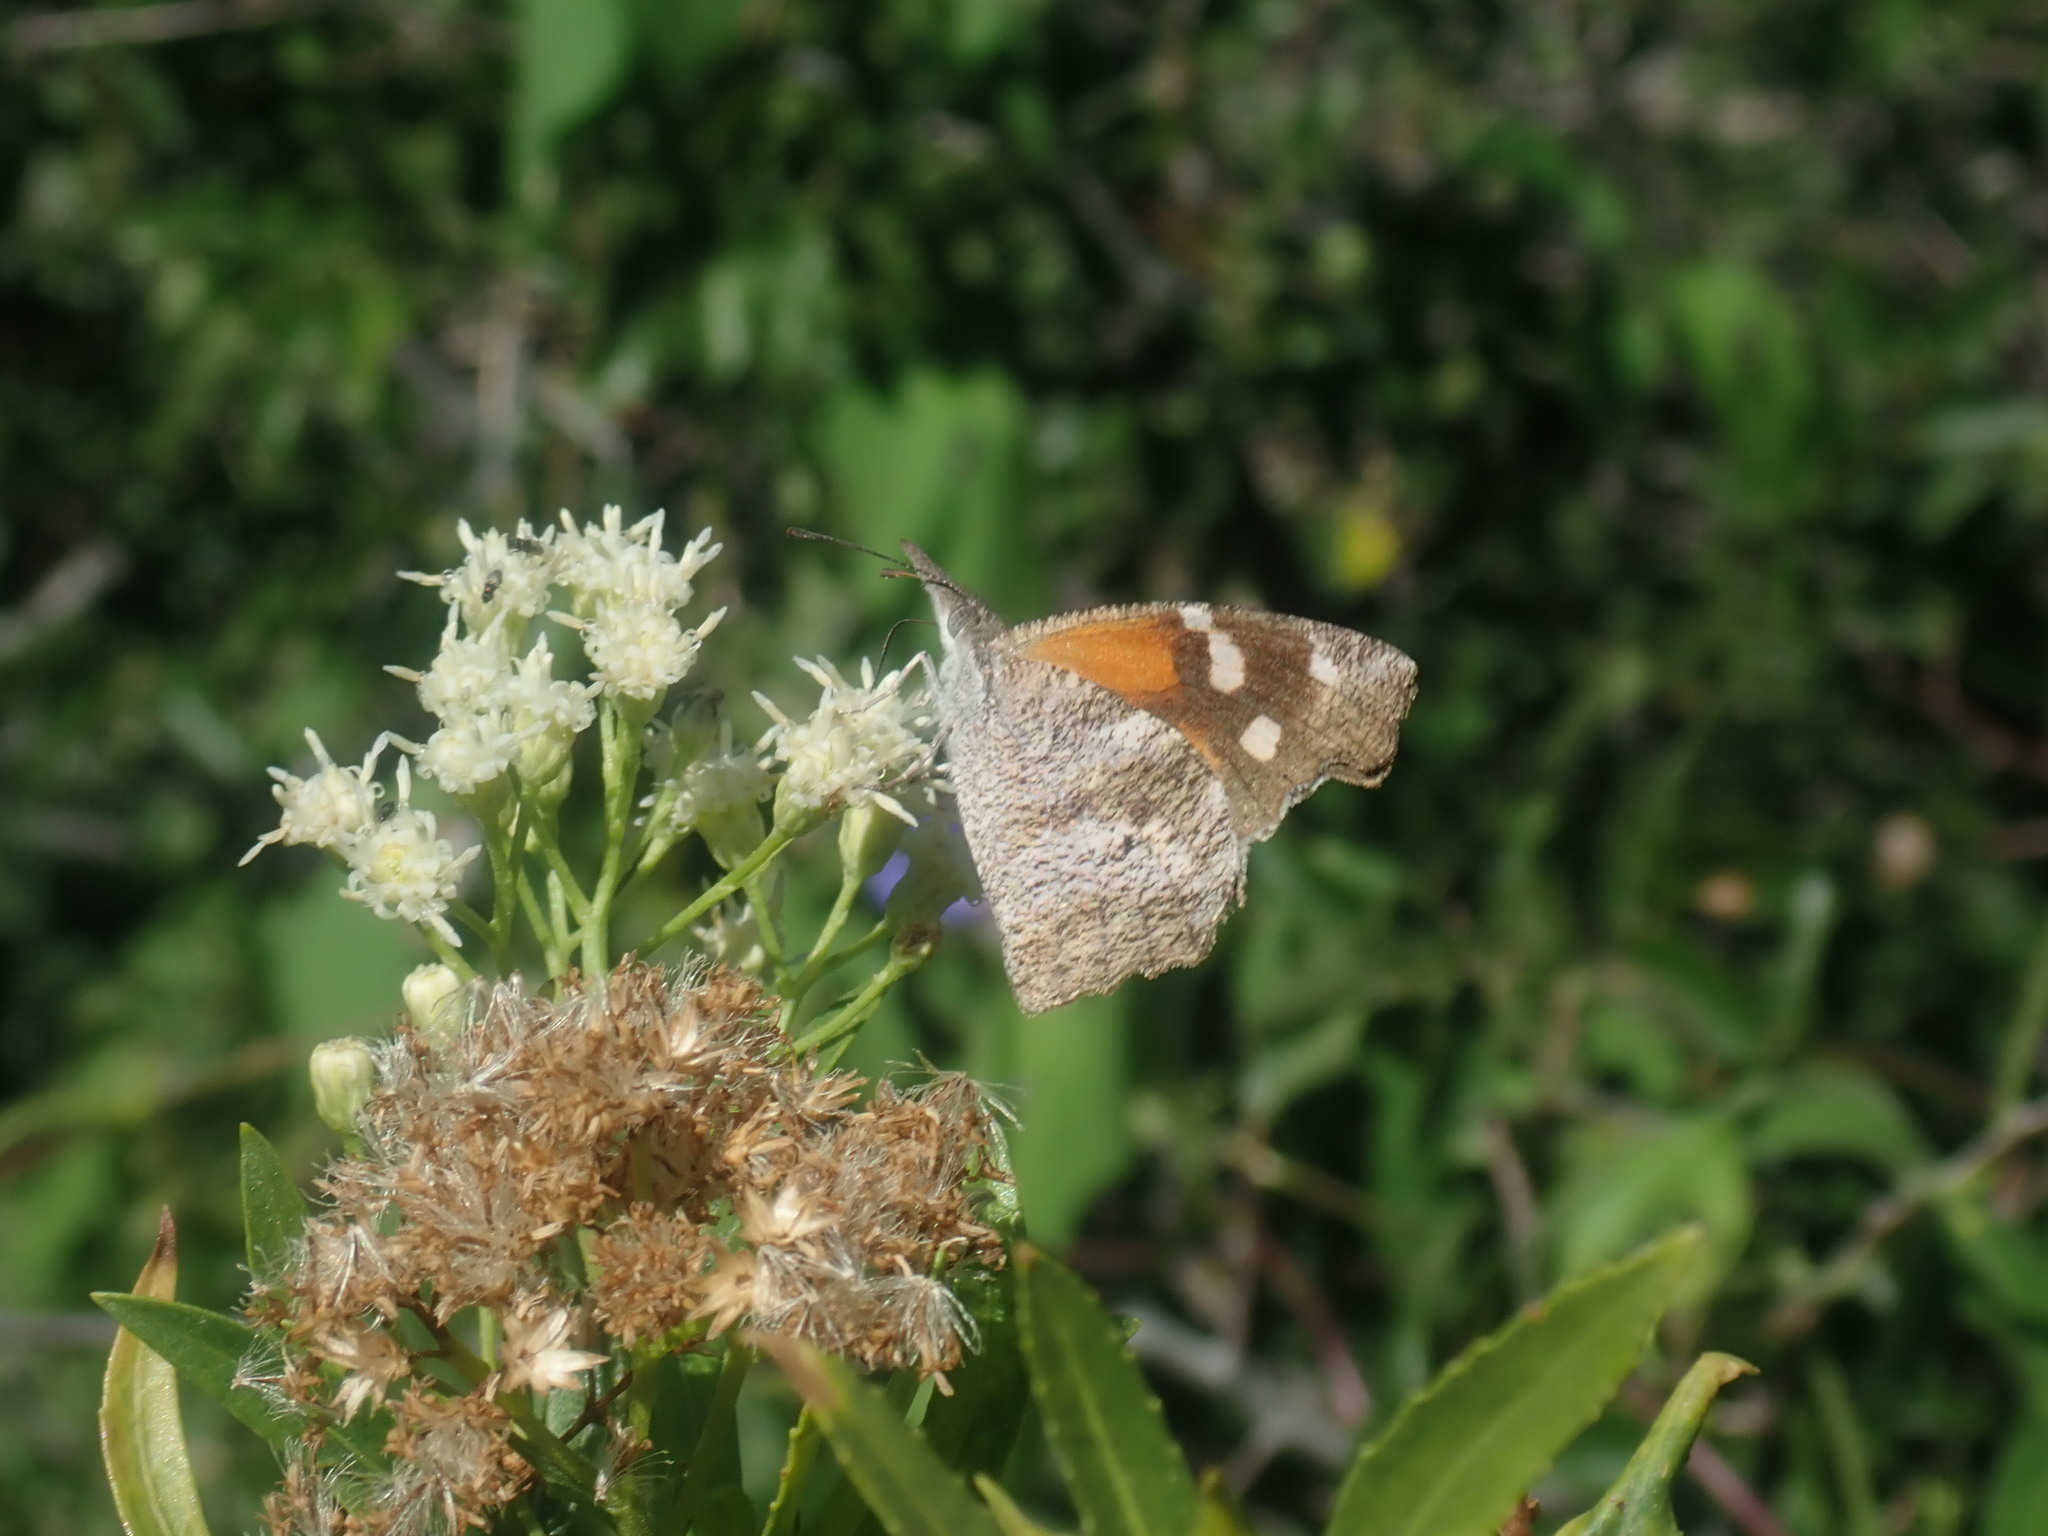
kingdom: Animalia
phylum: Arthropoda
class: Insecta
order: Lepidoptera
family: Nymphalidae
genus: Libytheana
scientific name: Libytheana carinenta
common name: American snout
